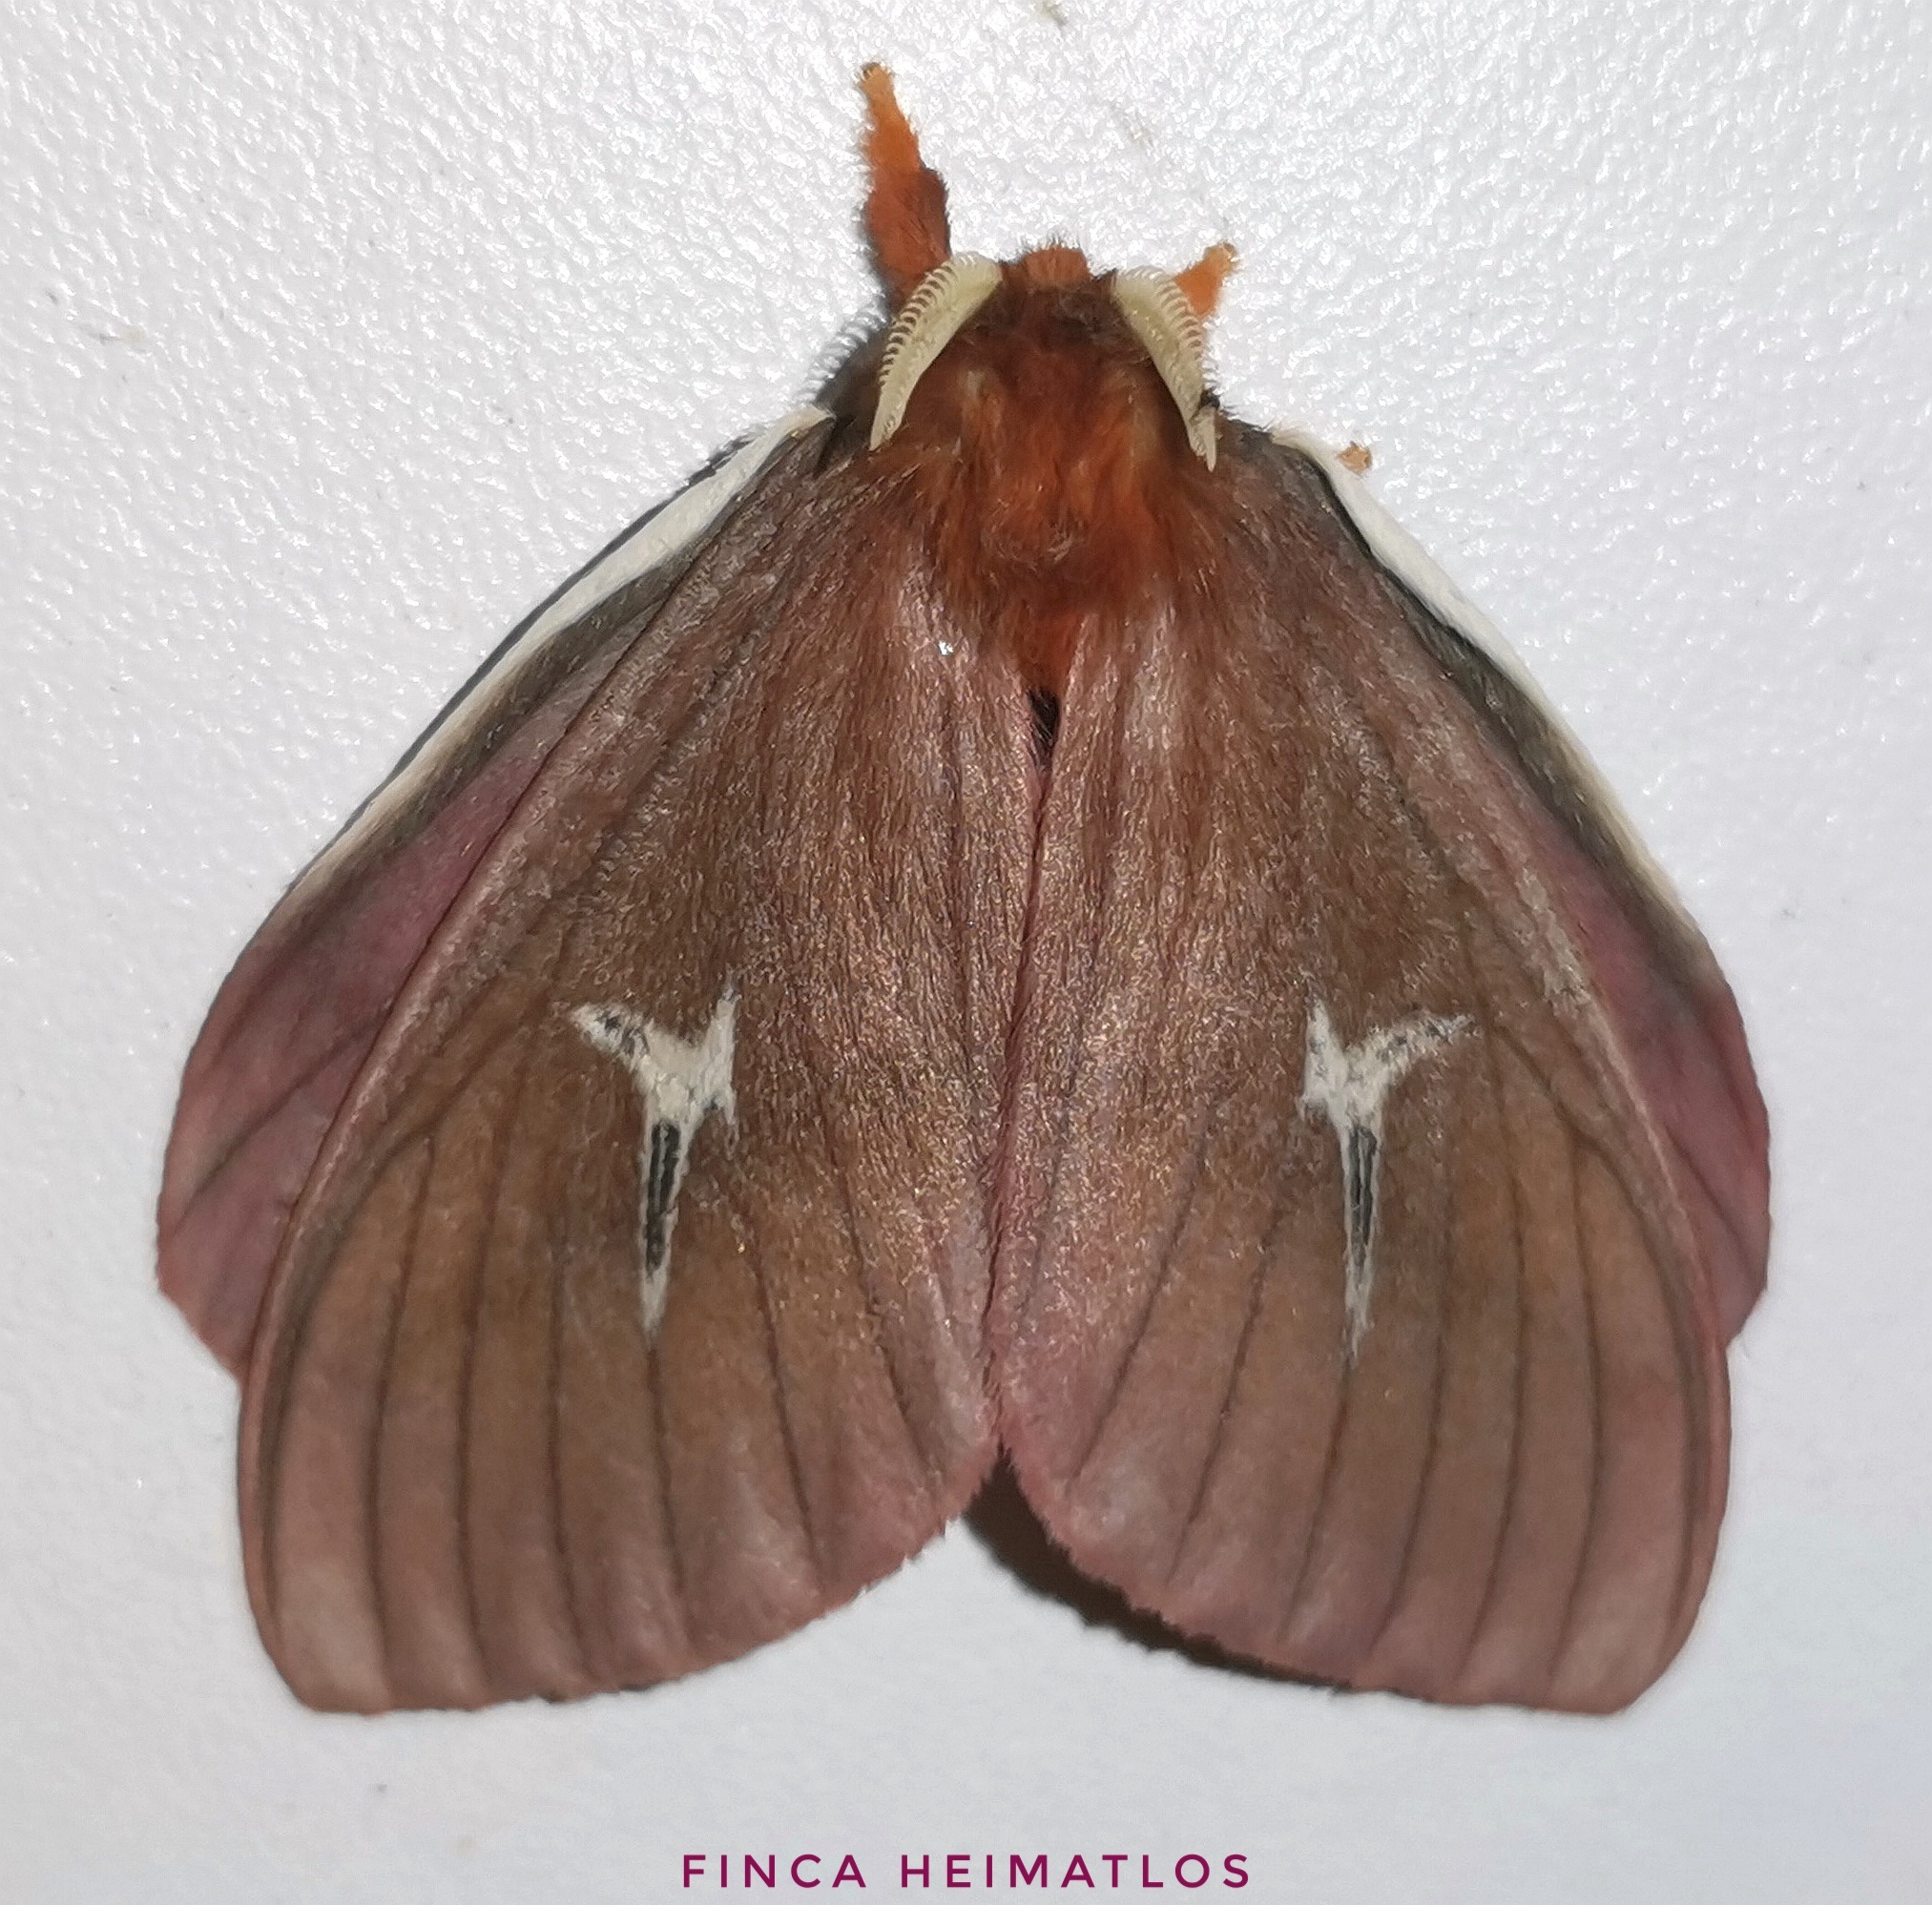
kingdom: Animalia
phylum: Arthropoda
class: Insecta
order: Lepidoptera
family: Saturniidae
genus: Cerodirphia
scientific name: Cerodirphia speciosa
